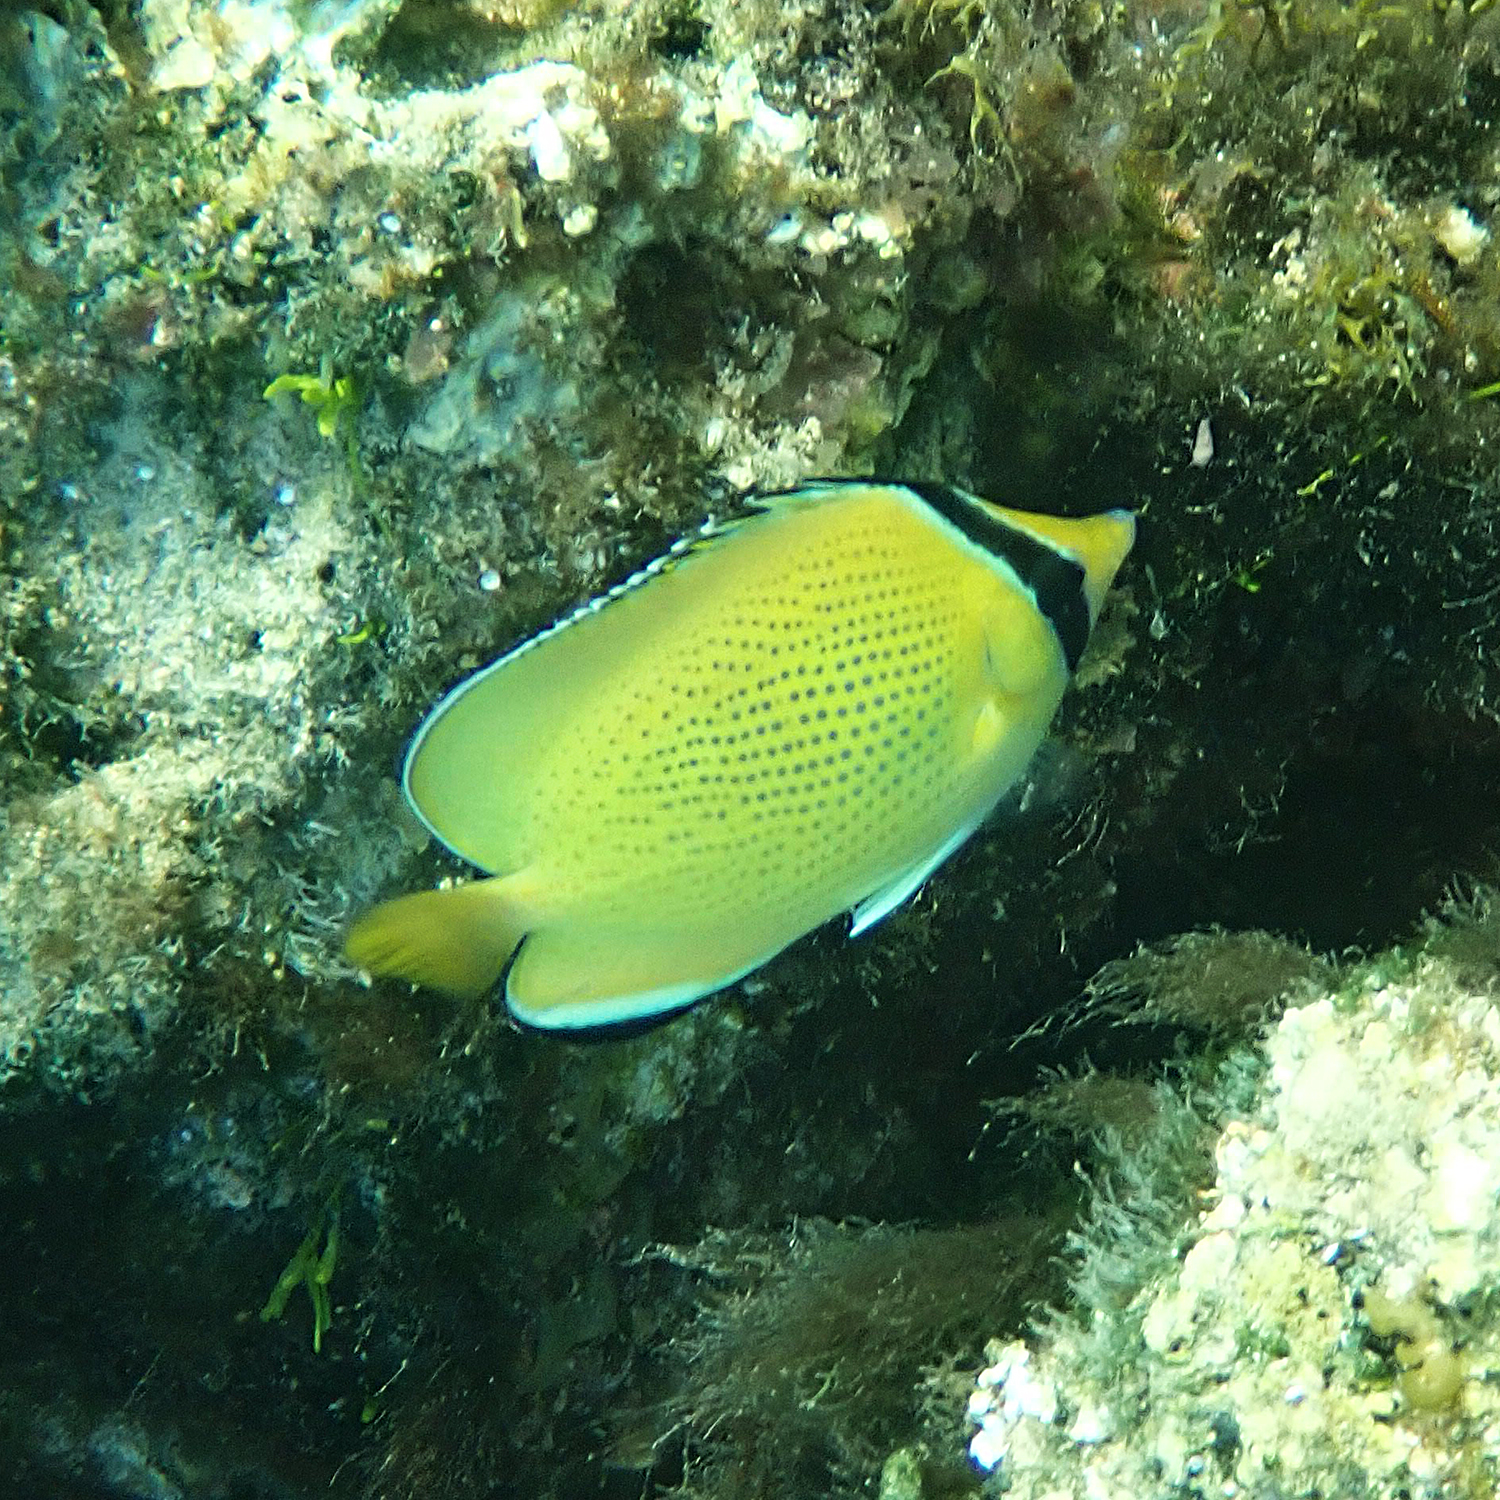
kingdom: Animalia
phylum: Chordata
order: Perciformes
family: Chaetodontidae
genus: Chaetodon
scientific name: Chaetodon citrinellus
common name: Speckled butterflyfish
